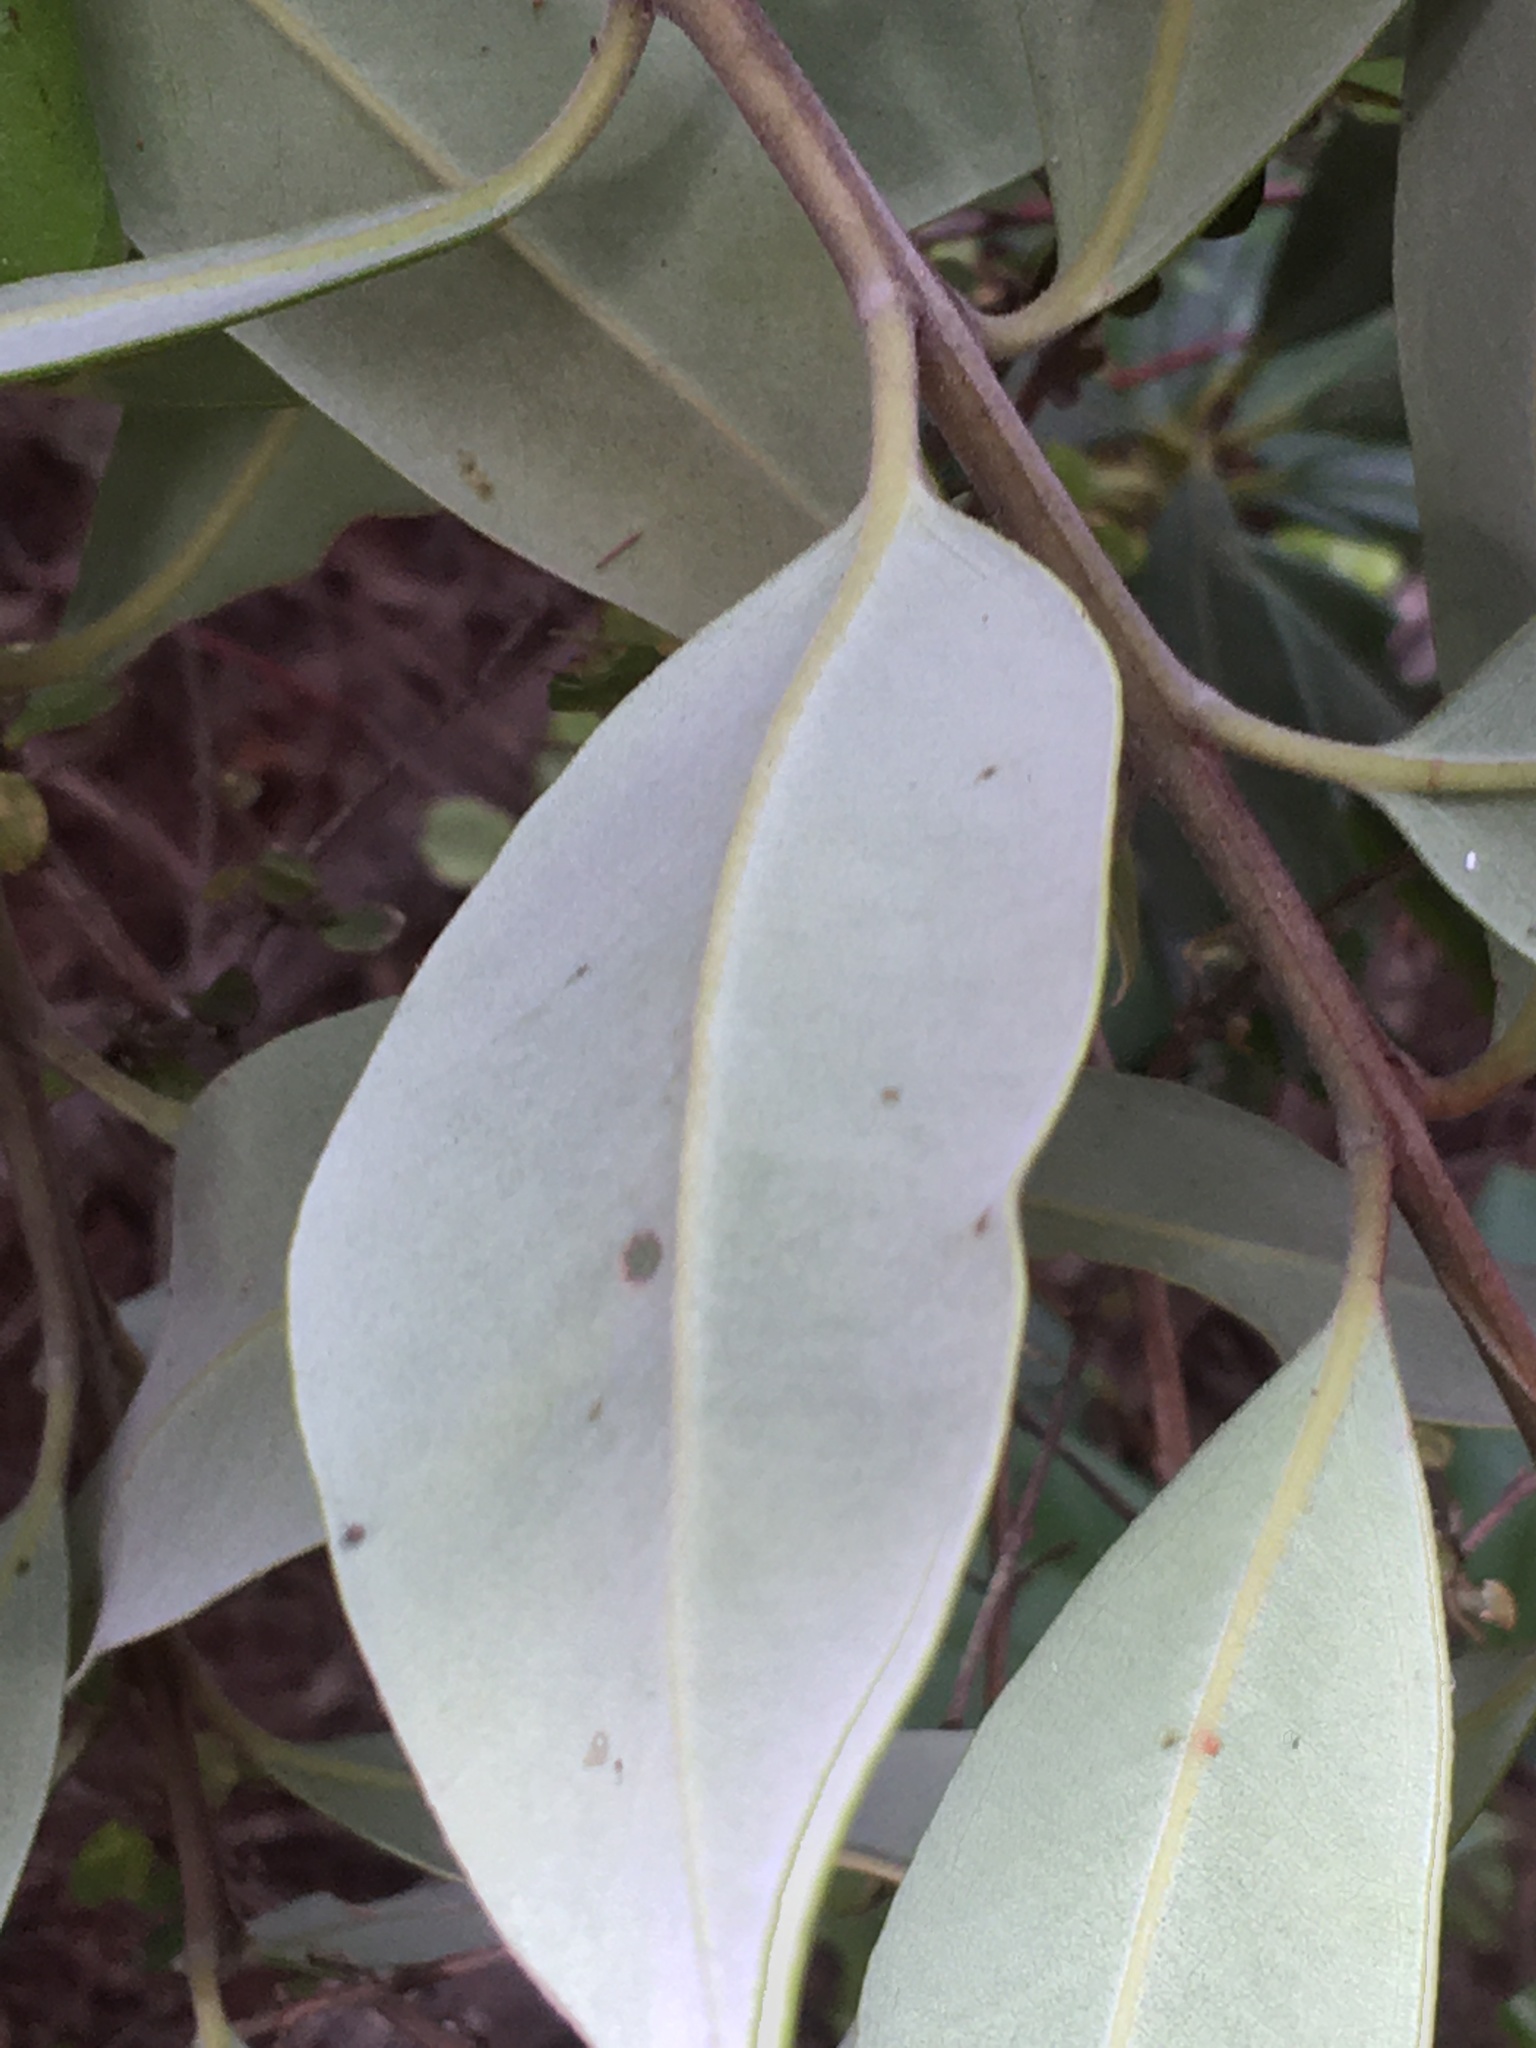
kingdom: Plantae
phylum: Tracheophyta
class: Magnoliopsida
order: Myrtales
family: Myrtaceae
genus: Metrosideros
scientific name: Metrosideros excelsa
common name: New zealand christmastree
